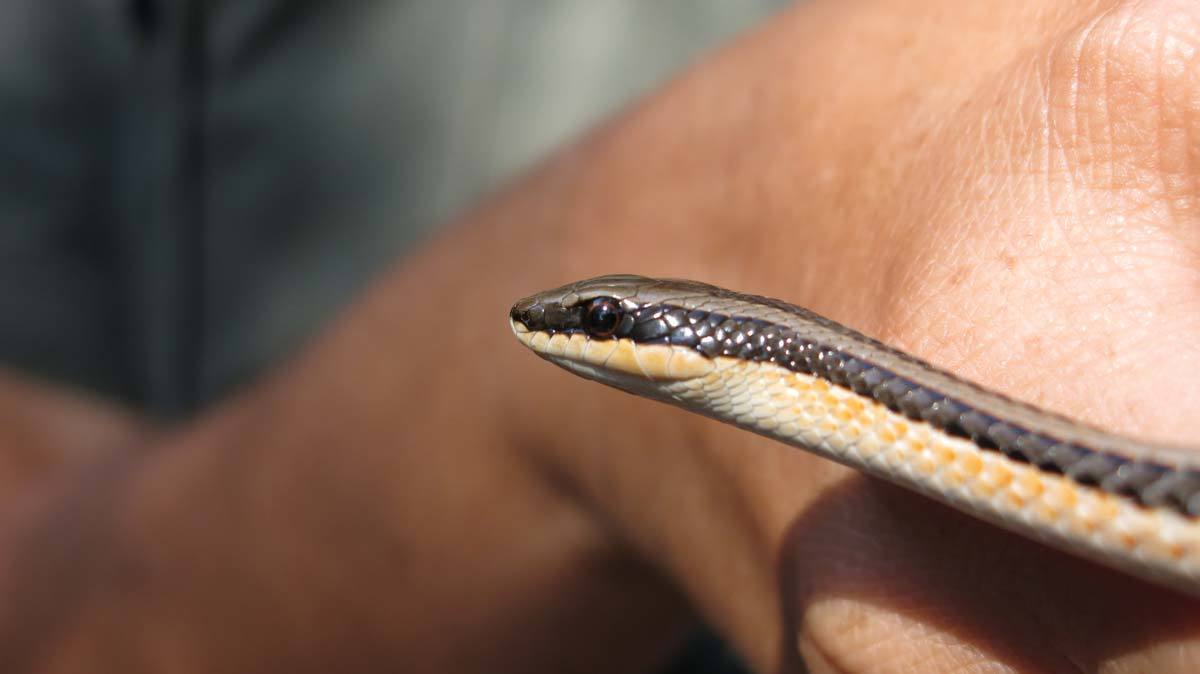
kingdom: Animalia
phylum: Chordata
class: Squamata
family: Psammophiidae
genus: Psammophylax
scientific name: Psammophylax tritaeniatus
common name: Striped skaapsteker
